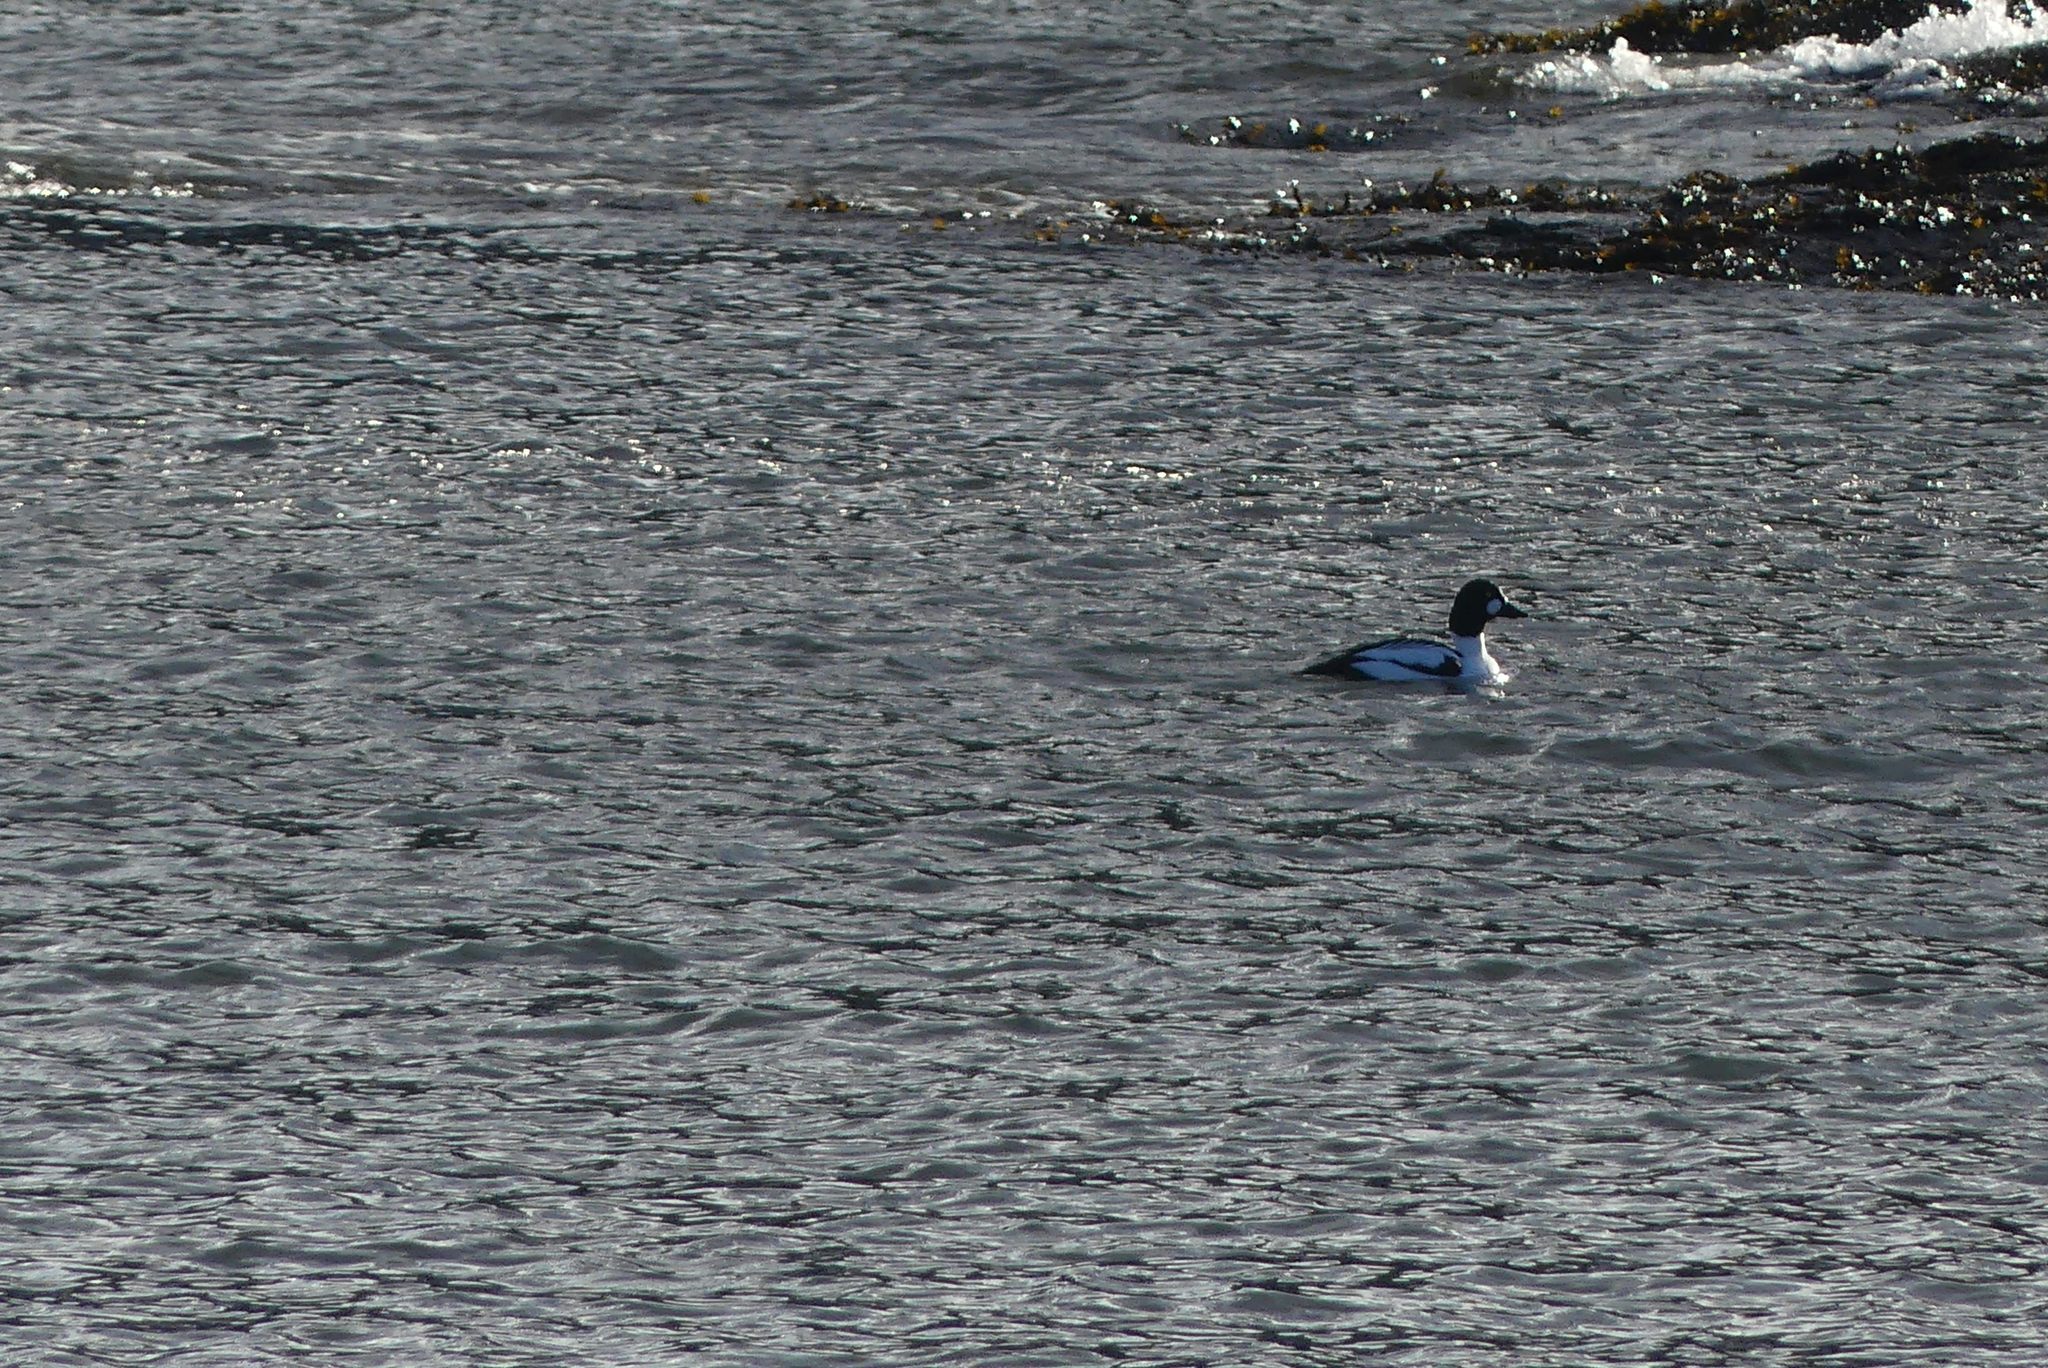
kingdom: Animalia
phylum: Chordata
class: Aves
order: Anseriformes
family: Anatidae
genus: Bucephala
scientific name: Bucephala clangula
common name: Common goldeneye
